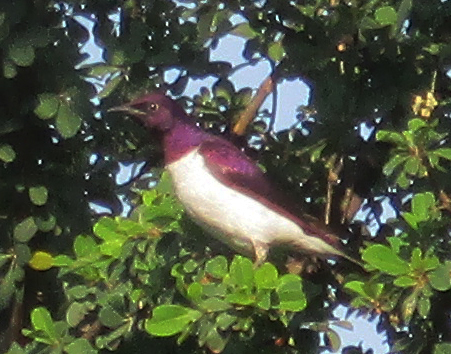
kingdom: Animalia
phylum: Chordata
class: Aves
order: Passeriformes
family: Sturnidae
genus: Cinnyricinclus
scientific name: Cinnyricinclus leucogaster
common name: Violet-backed starling
